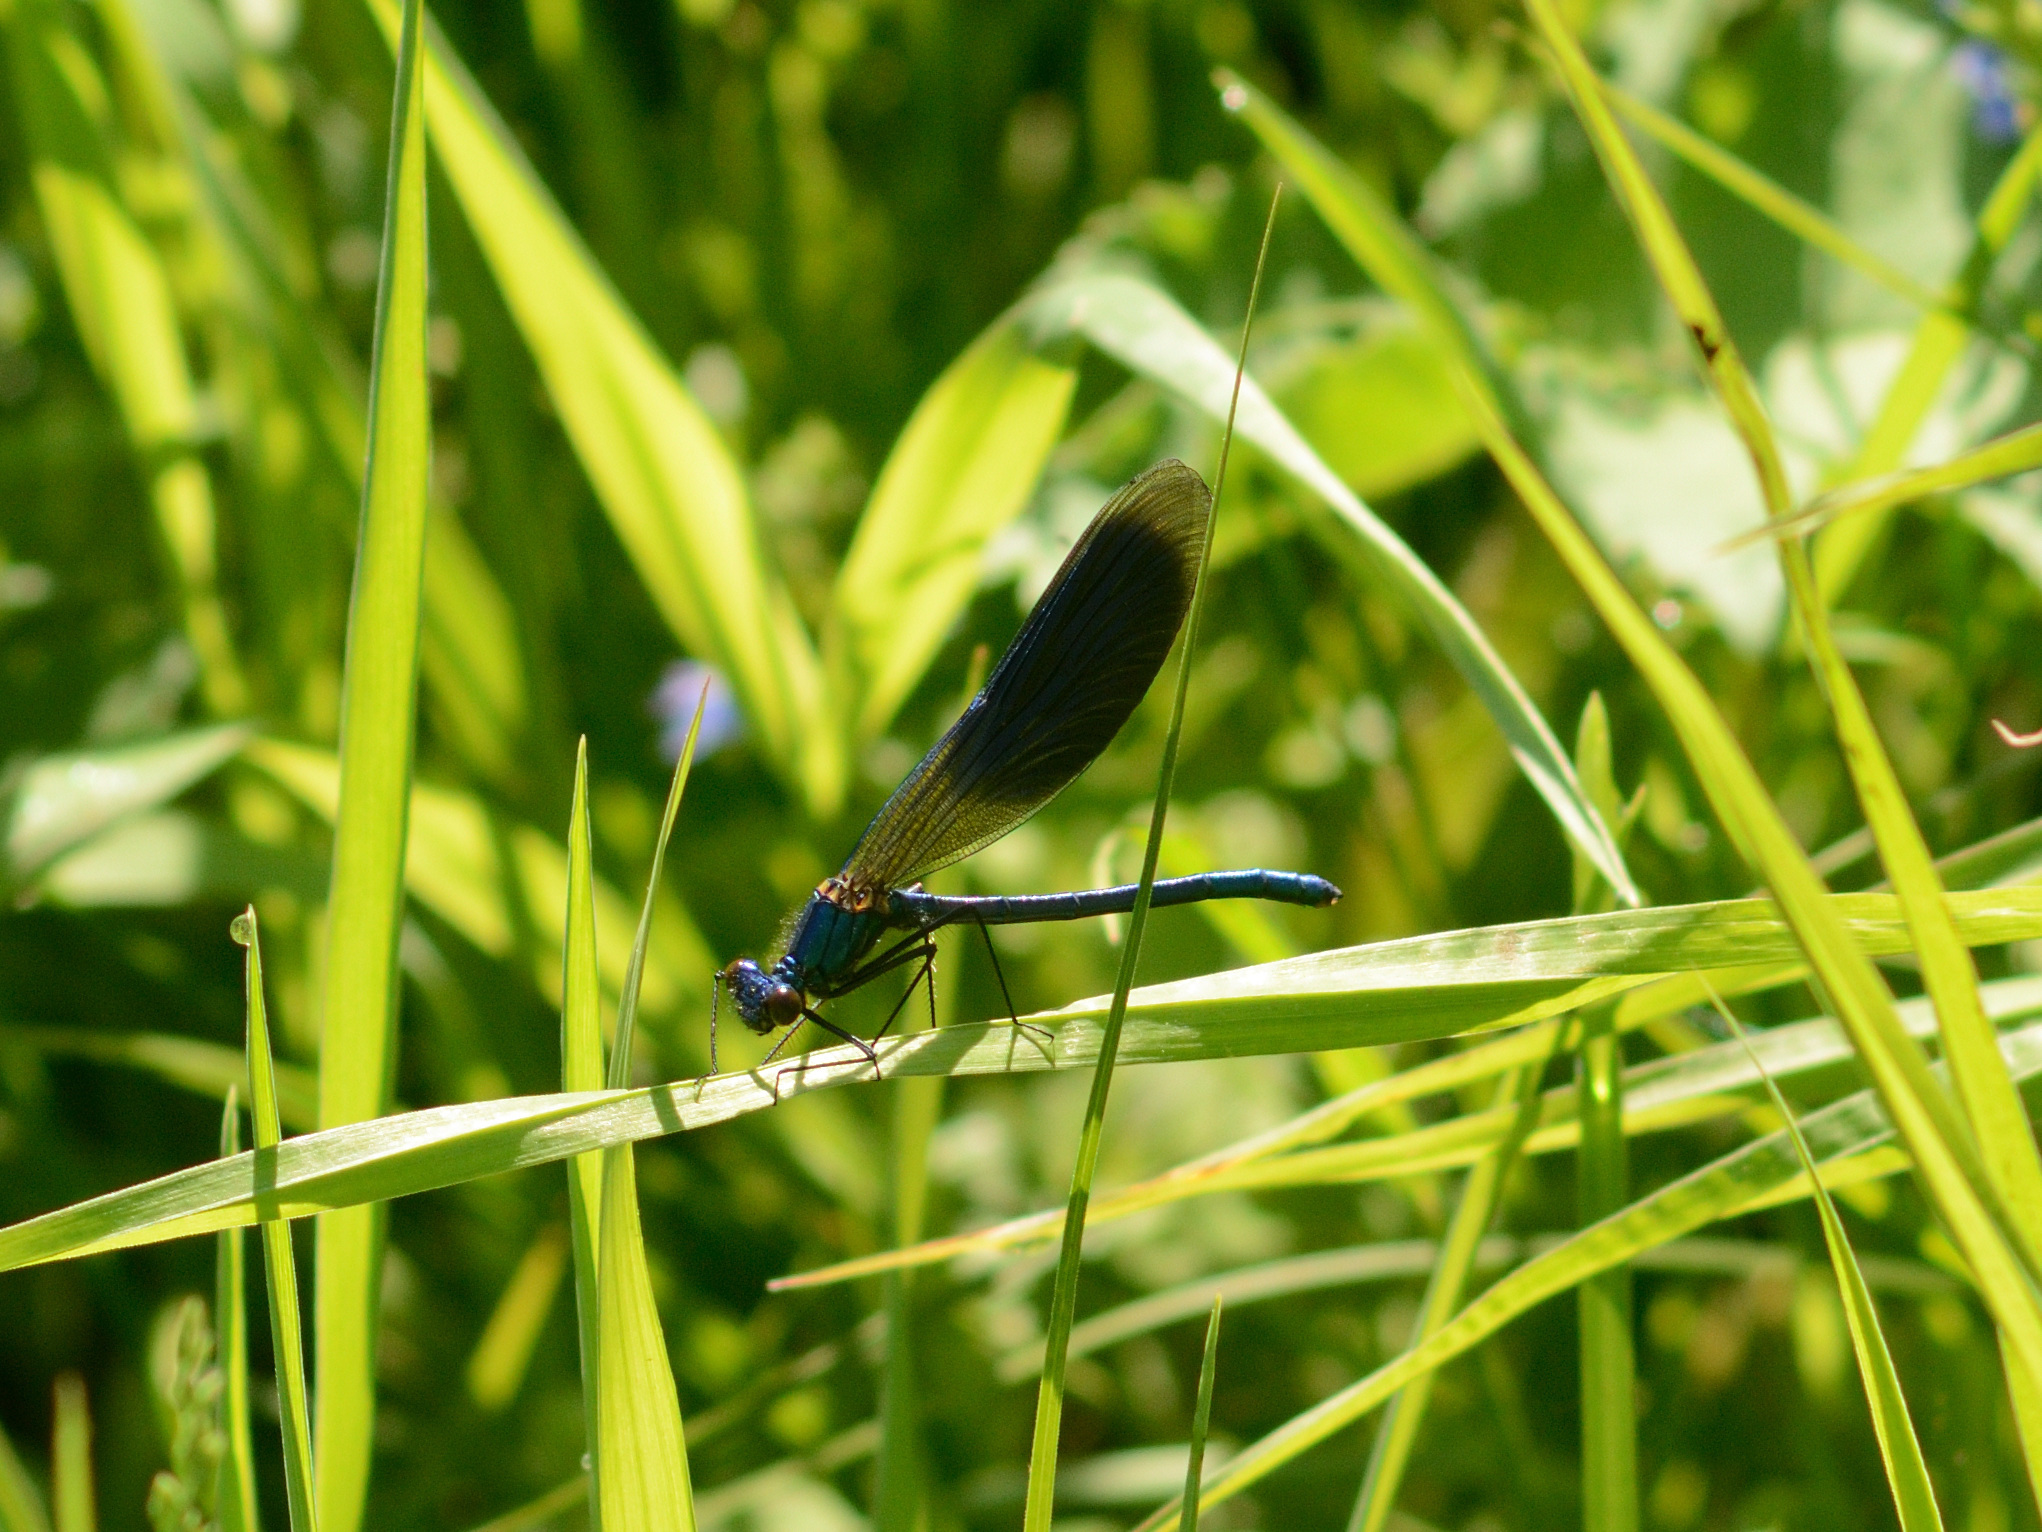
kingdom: Animalia
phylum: Arthropoda
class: Insecta
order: Odonata
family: Calopterygidae
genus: Calopteryx
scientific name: Calopteryx splendens
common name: Banded demoiselle
